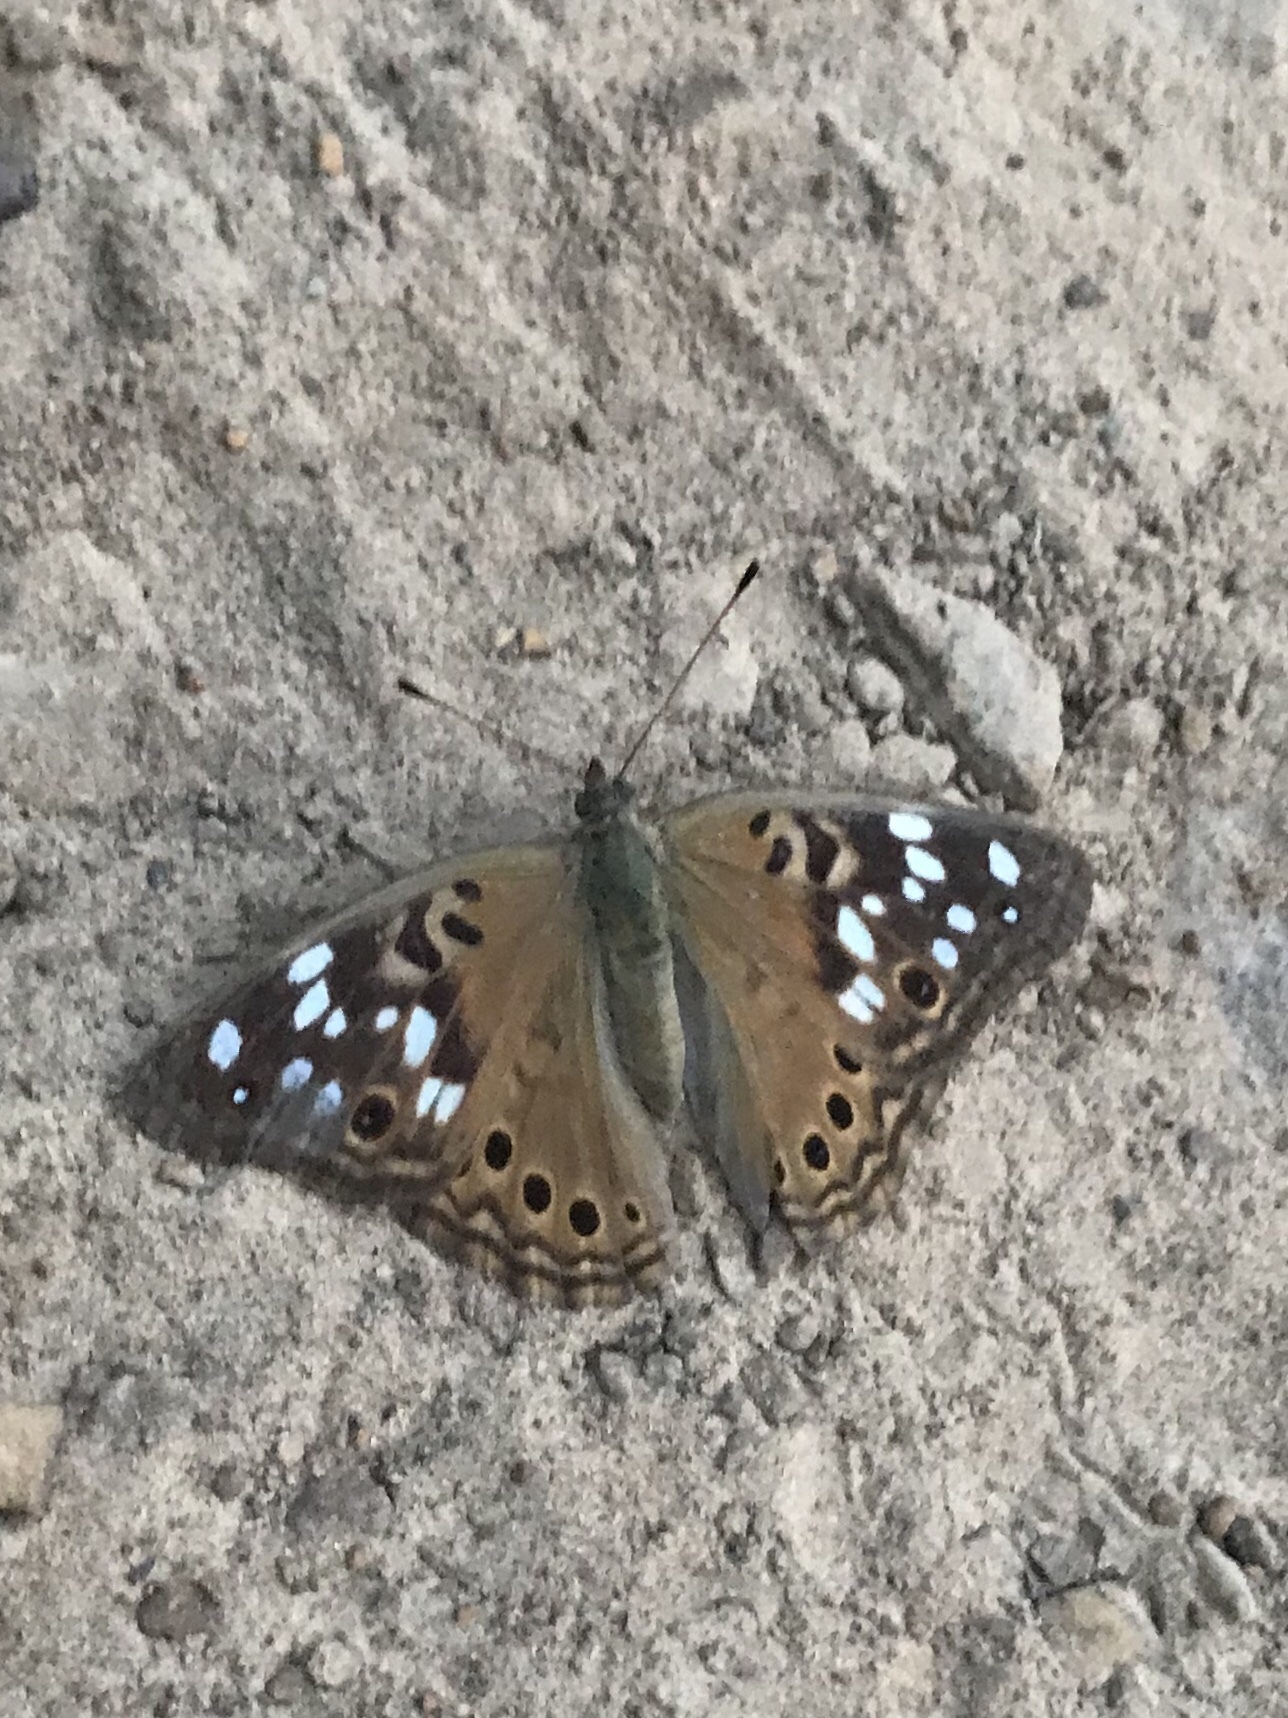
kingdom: Animalia
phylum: Arthropoda
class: Insecta
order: Lepidoptera
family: Nymphalidae
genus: Asterocampa
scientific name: Asterocampa celtis
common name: Hackberry emperor
